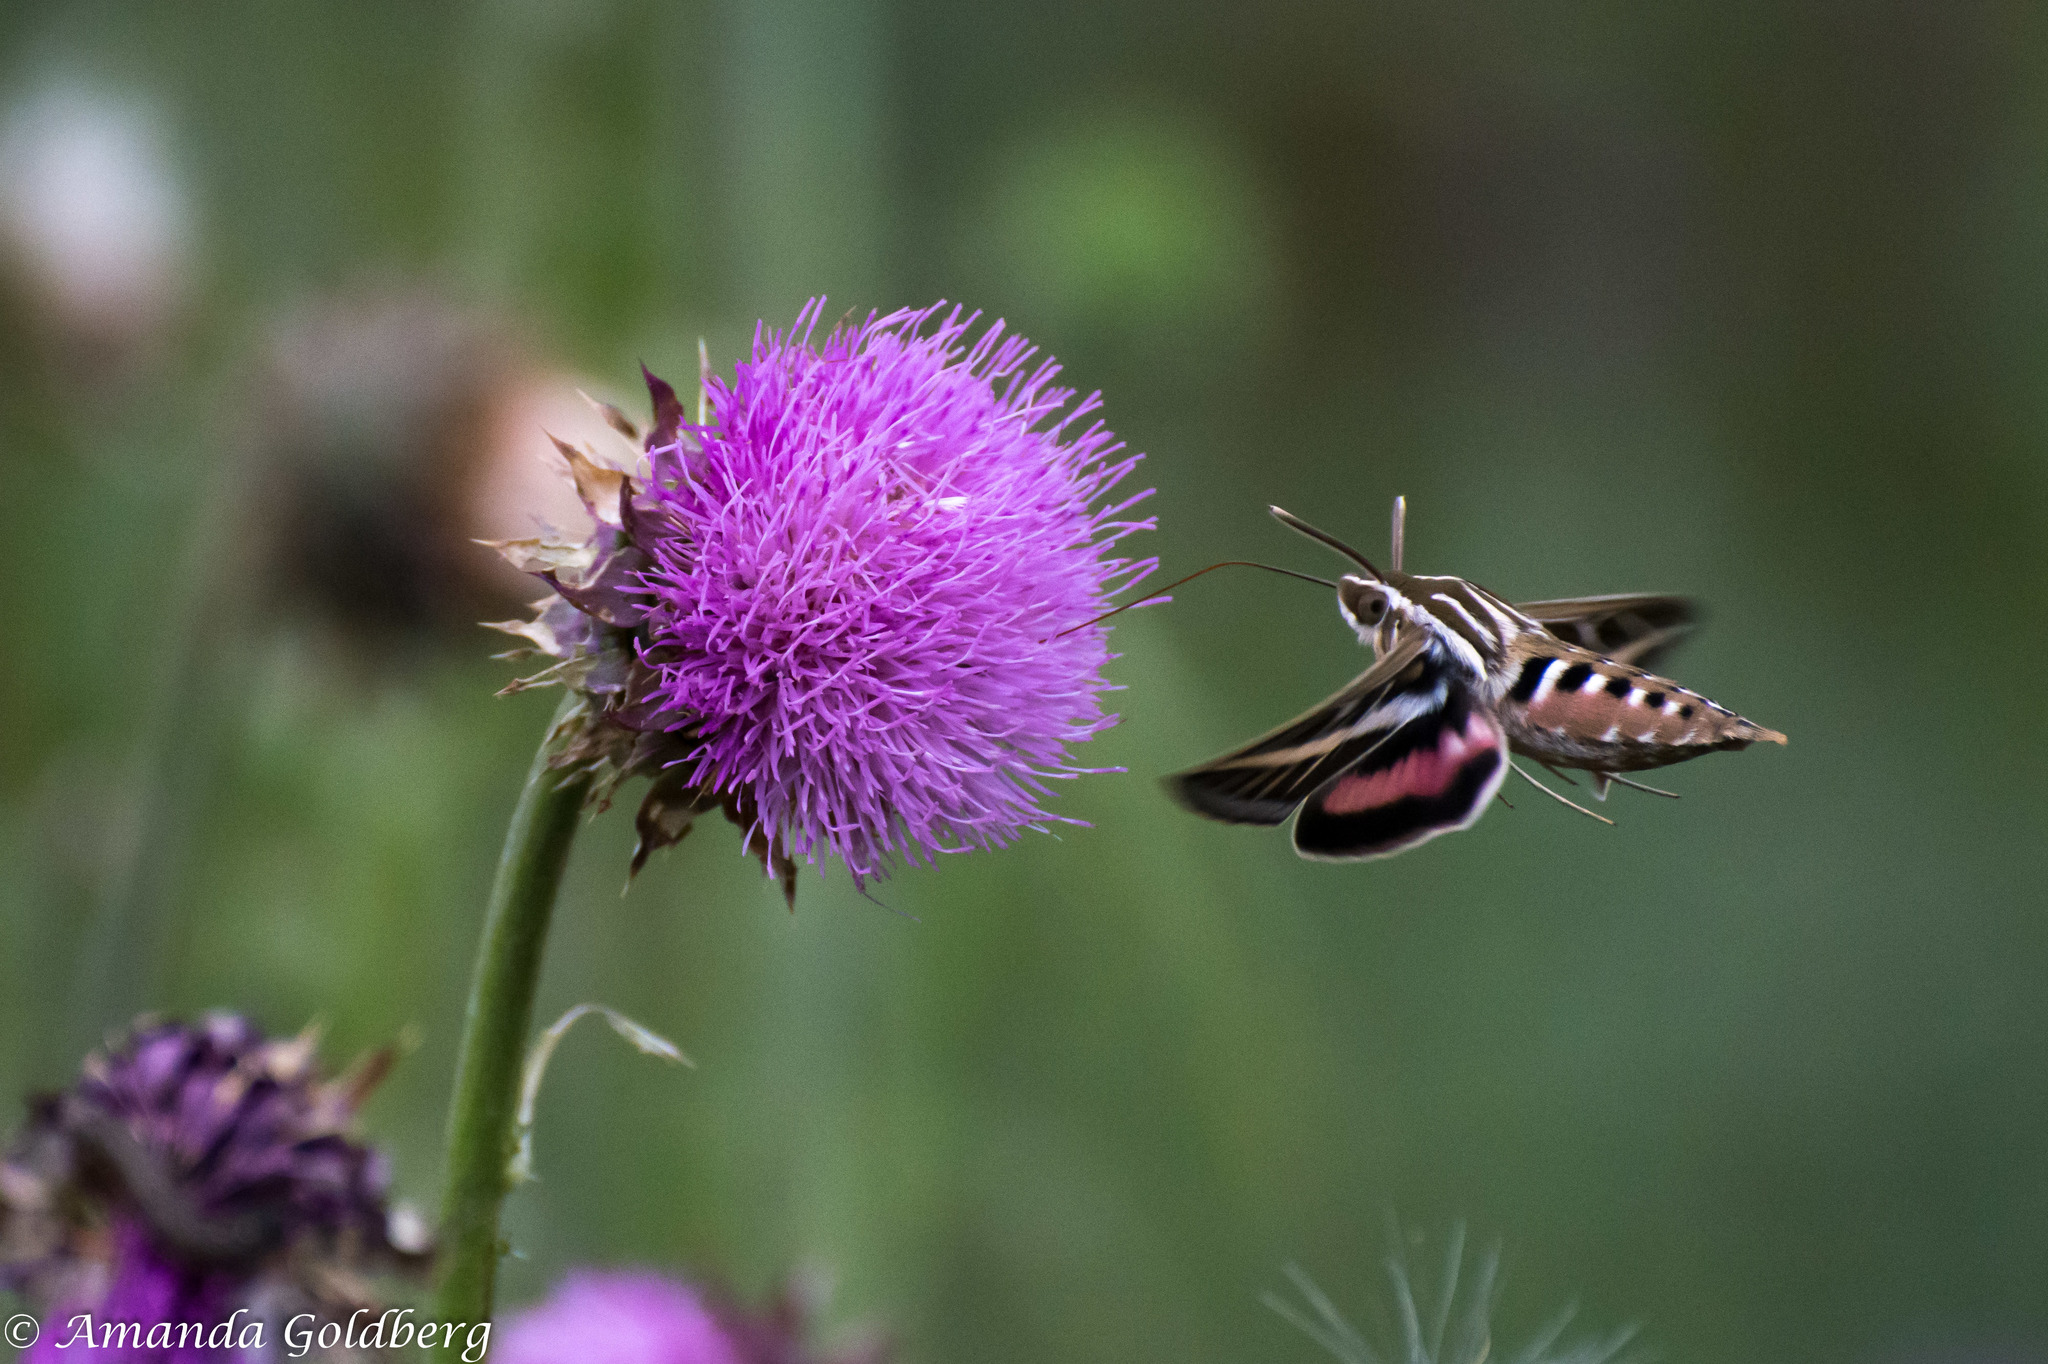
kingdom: Animalia
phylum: Arthropoda
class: Insecta
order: Lepidoptera
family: Sphingidae
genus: Hyles
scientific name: Hyles lineata
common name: White-lined sphinx
